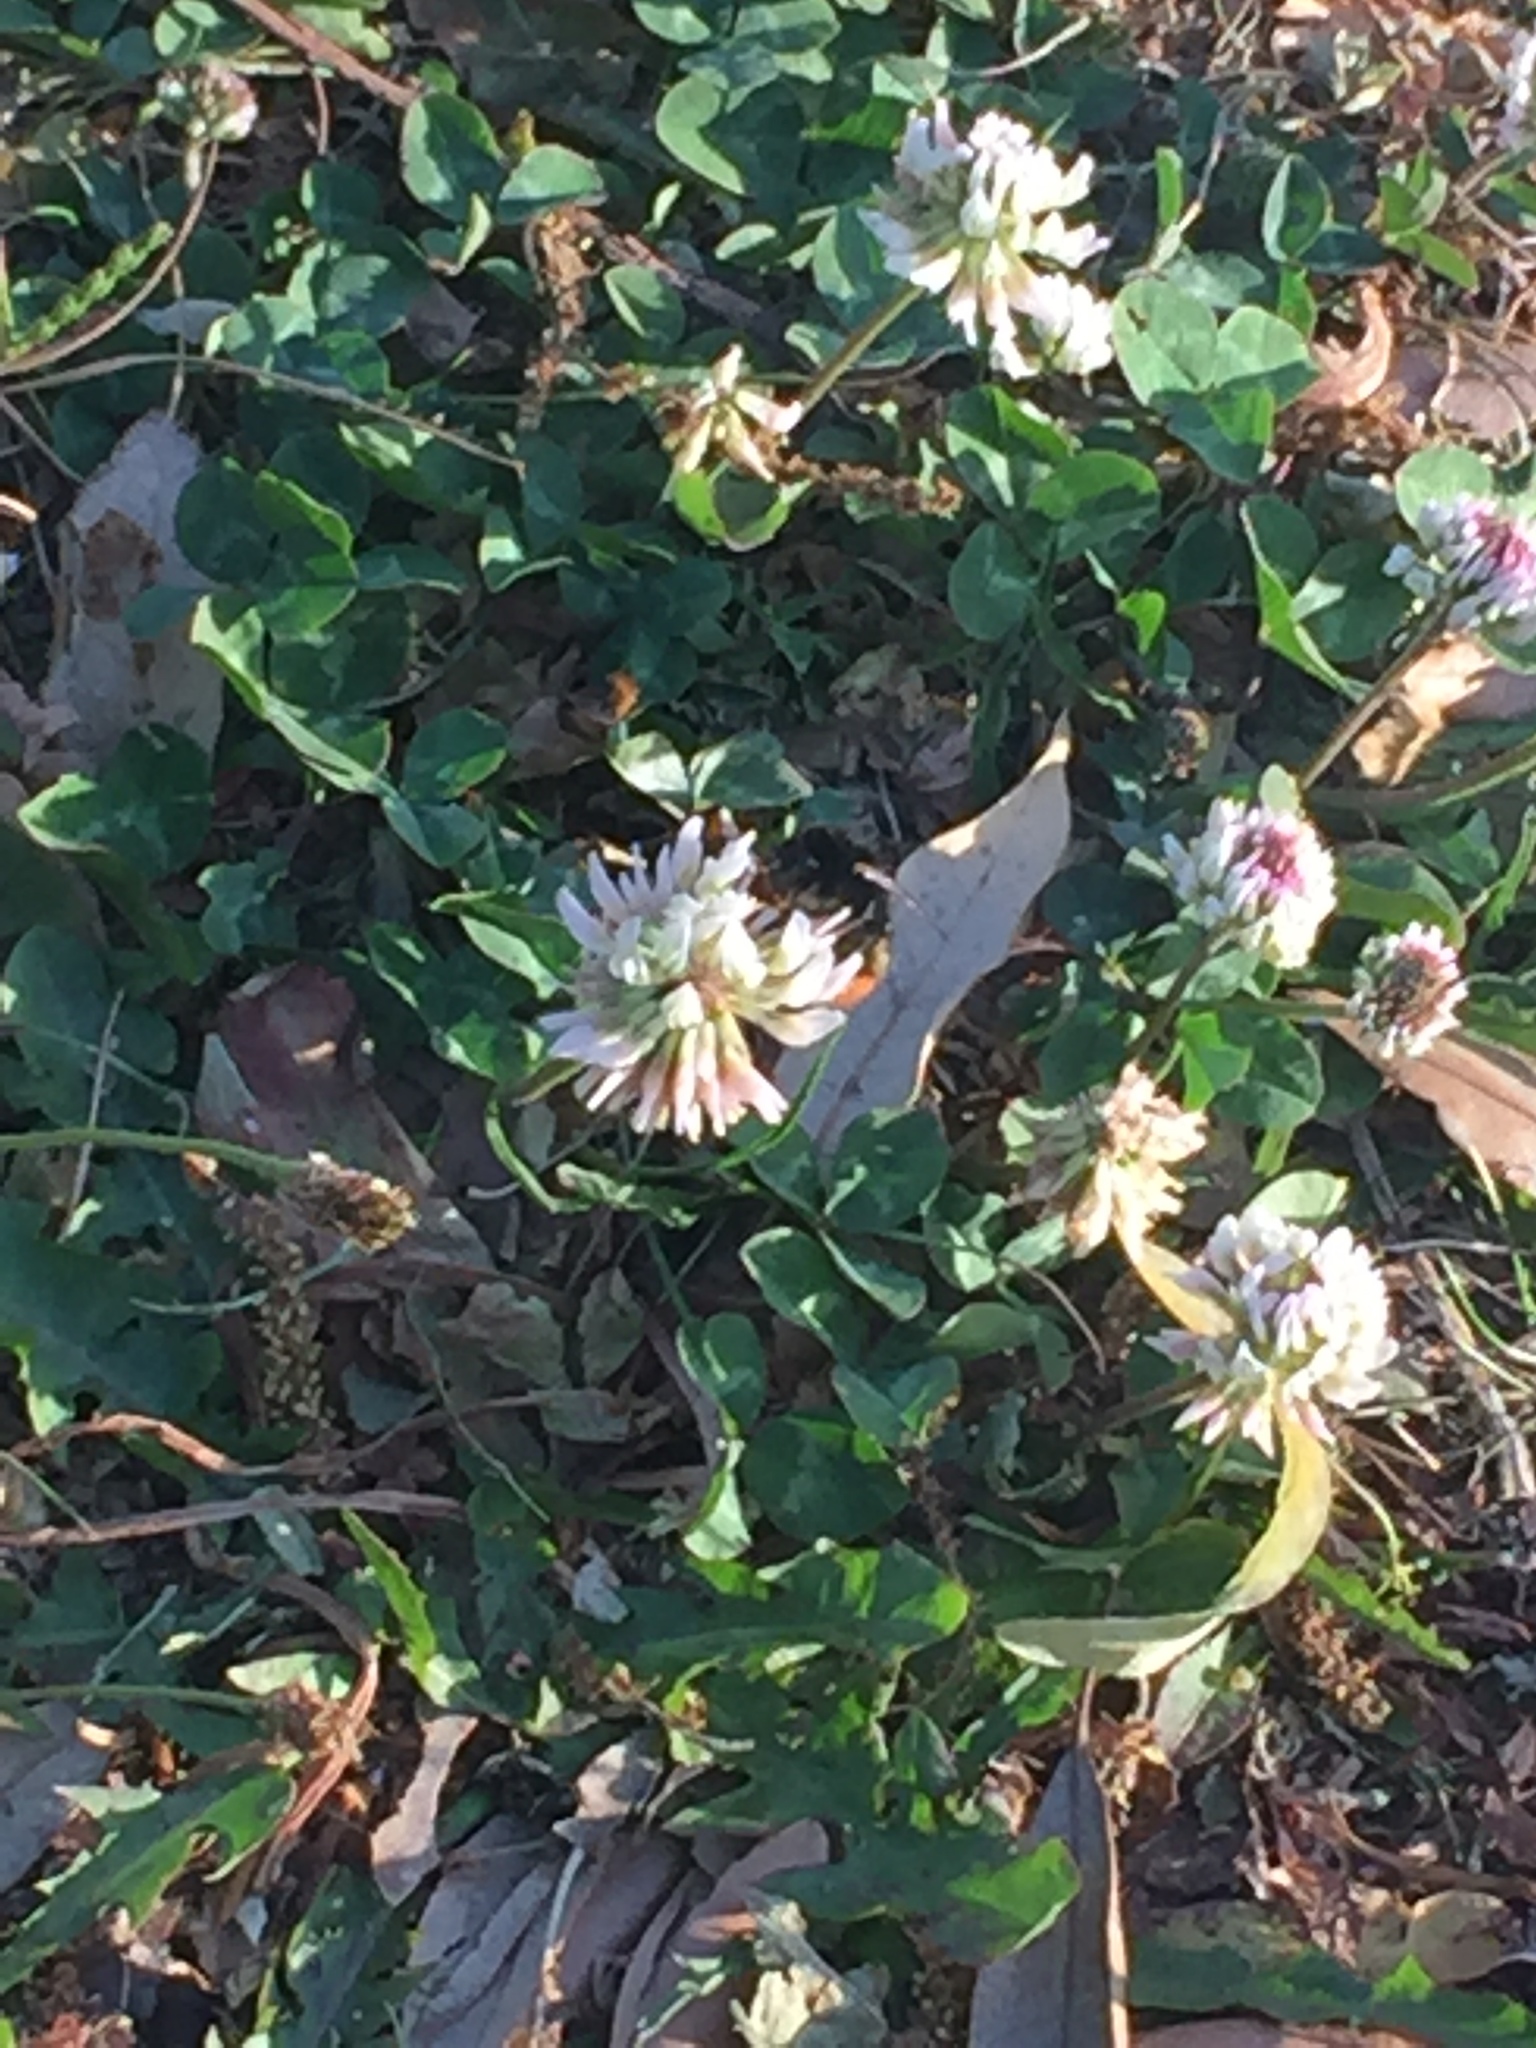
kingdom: Animalia
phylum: Arthropoda
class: Insecta
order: Hymenoptera
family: Apidae
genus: Bombus
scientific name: Bombus lapidarius
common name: Large red-tailed humble-bee
